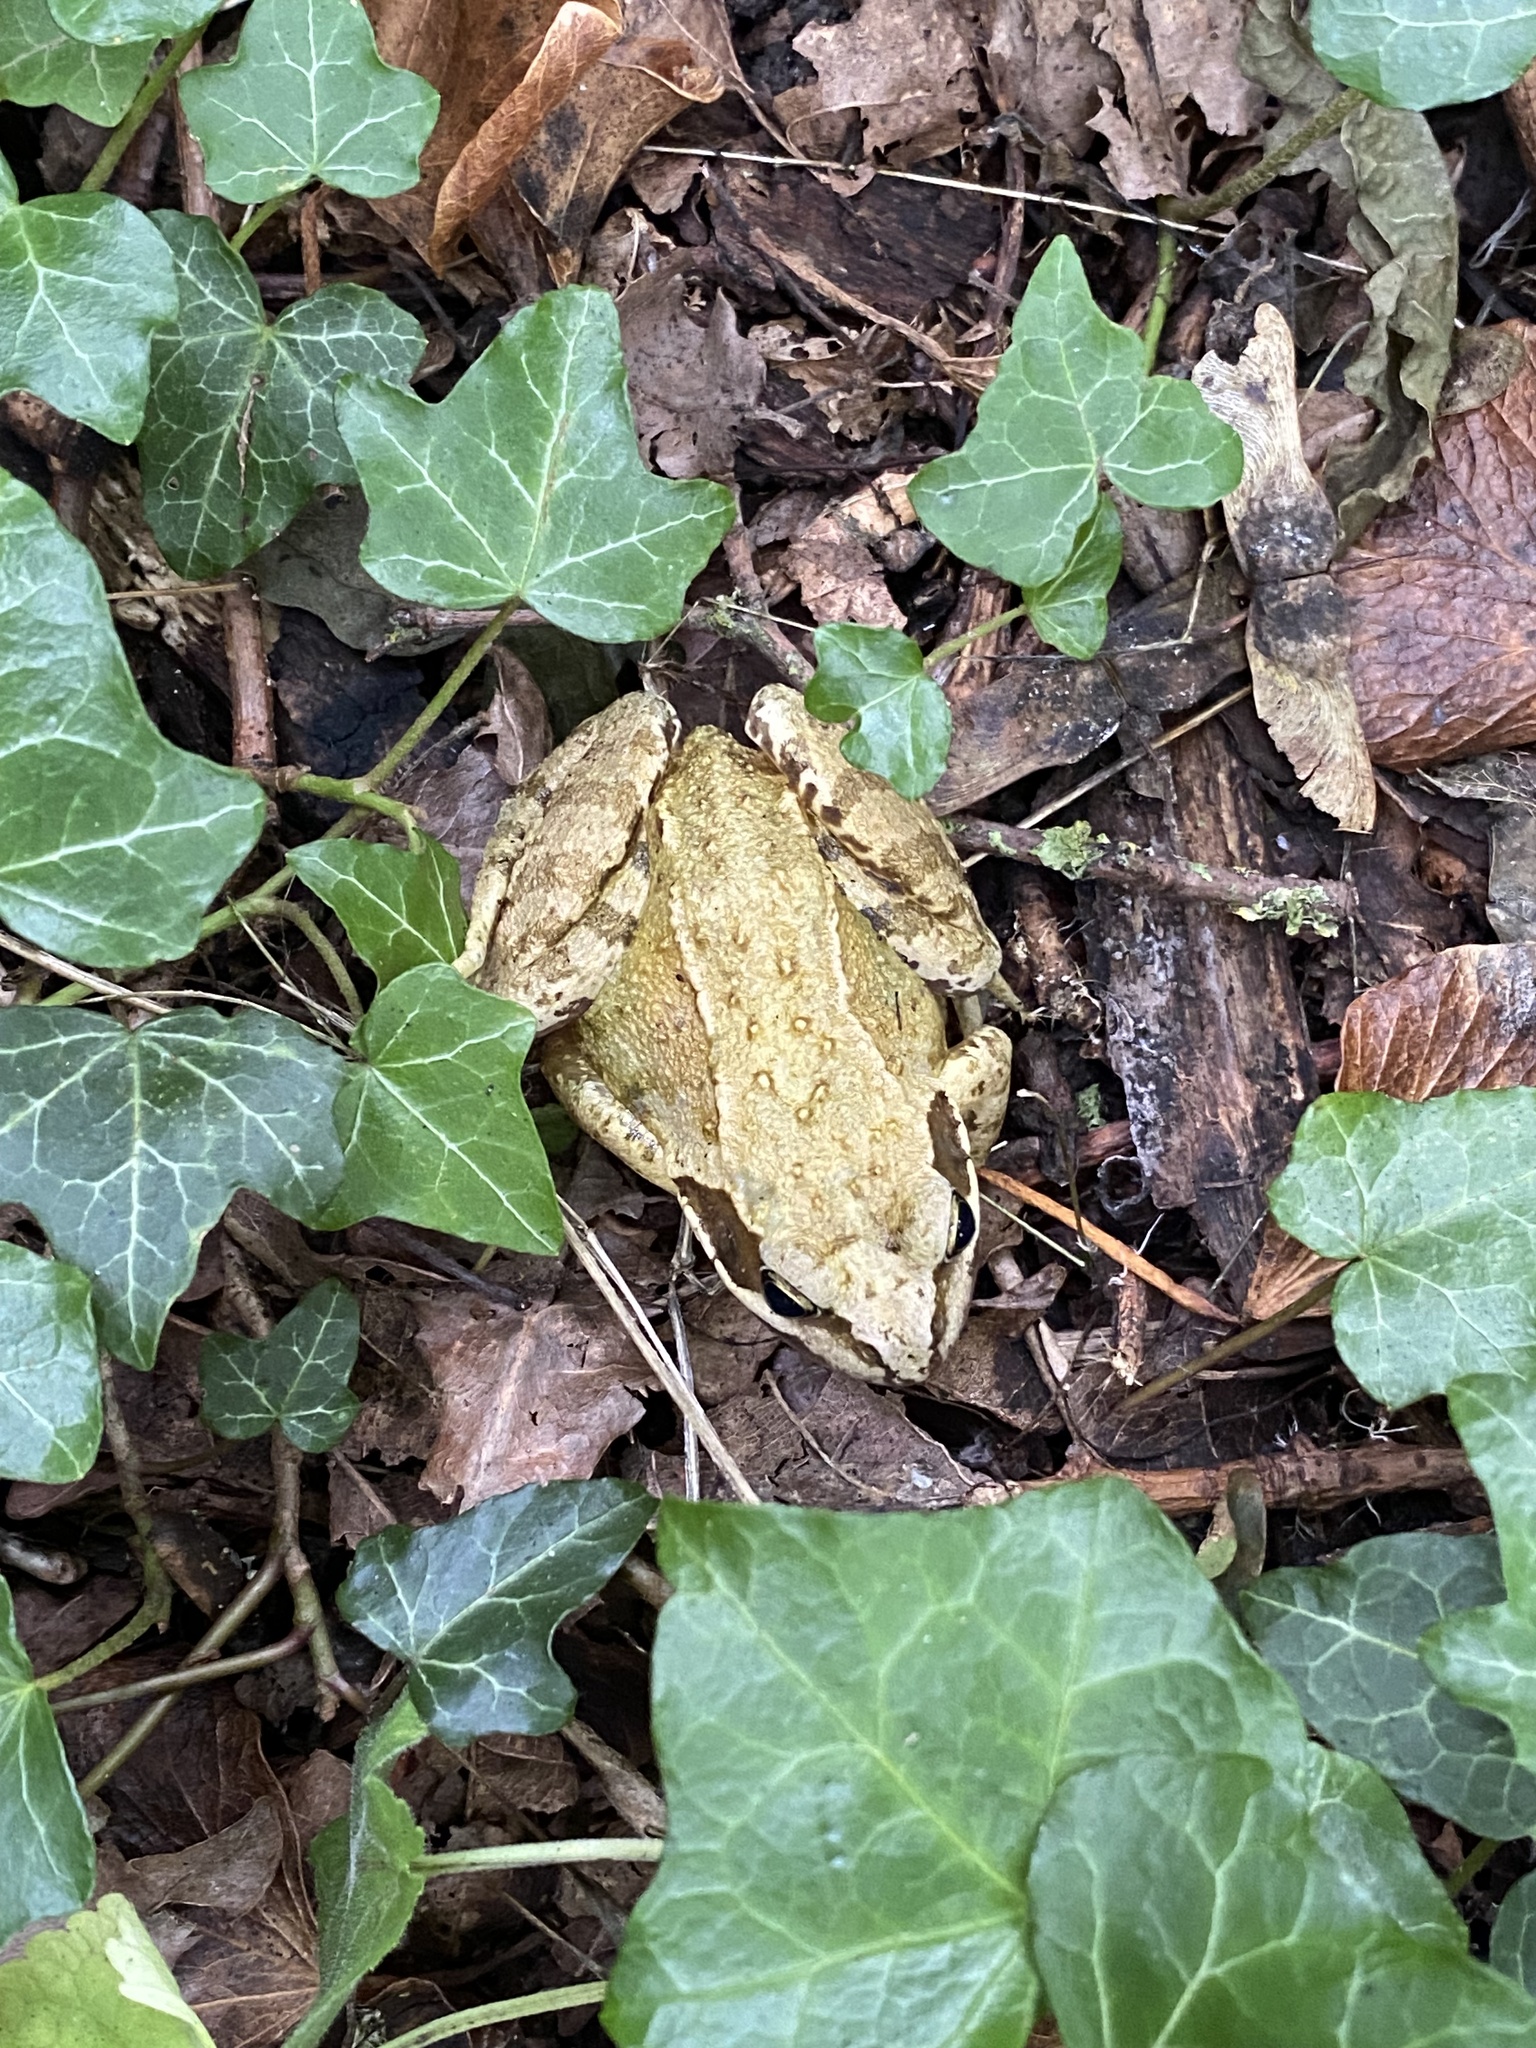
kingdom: Animalia
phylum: Chordata
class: Amphibia
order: Anura
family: Ranidae
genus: Rana
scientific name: Rana temporaria
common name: Common frog
